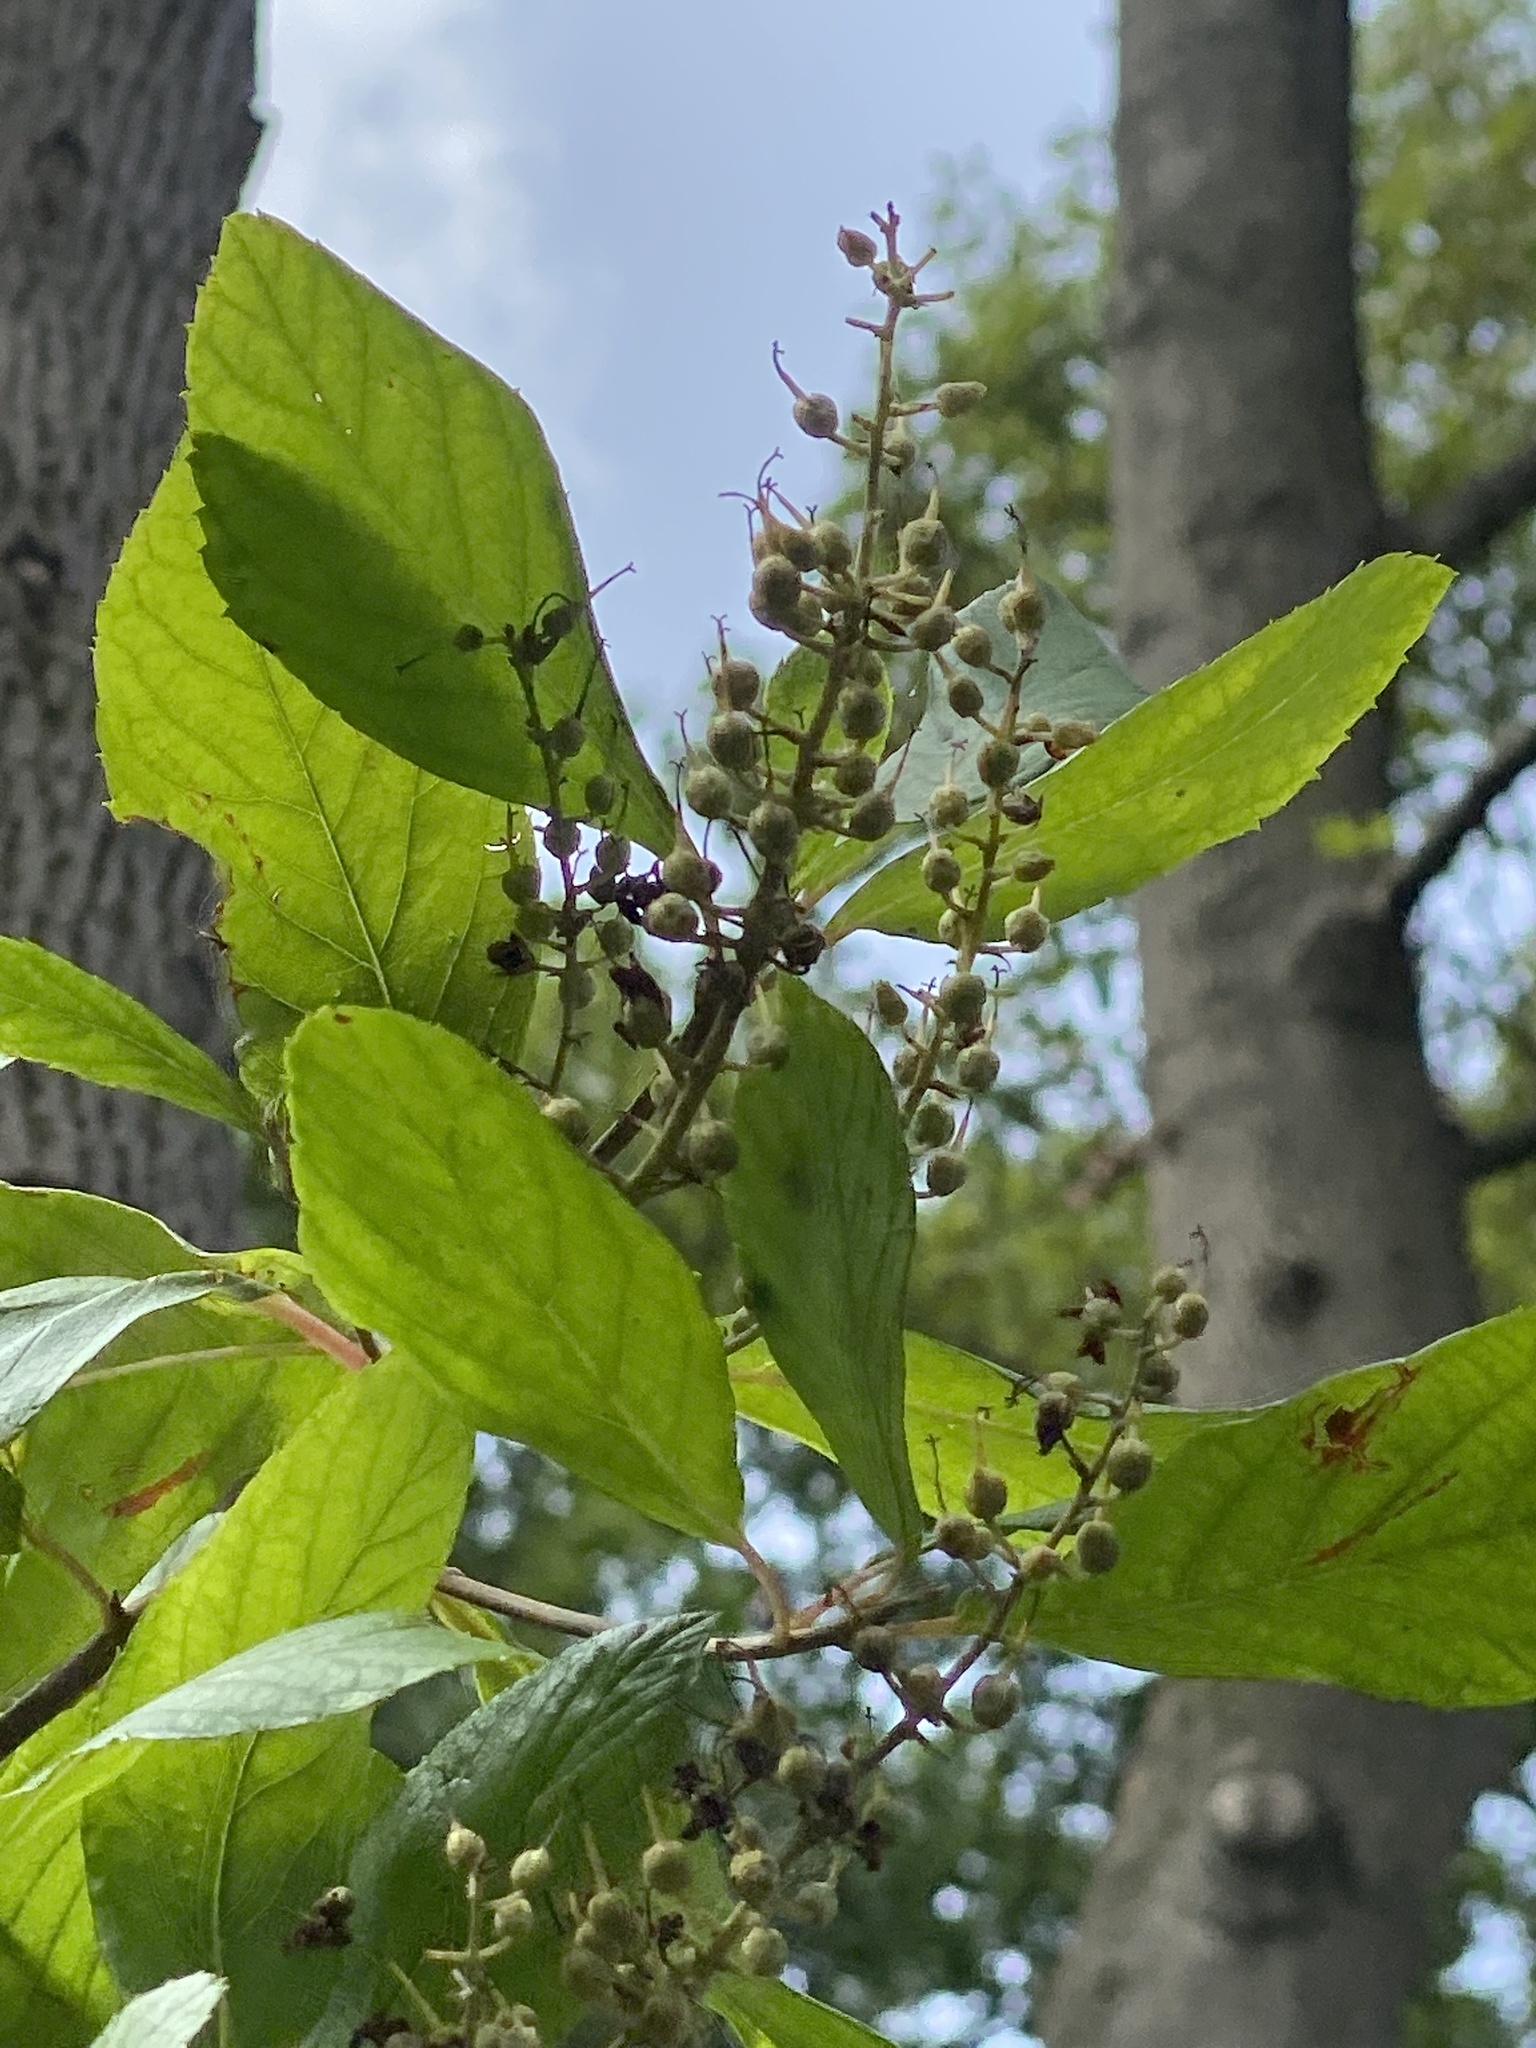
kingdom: Plantae
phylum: Tracheophyta
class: Magnoliopsida
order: Ericales
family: Clethraceae
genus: Clethra
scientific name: Clethra alnifolia
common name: Sweet pepperbush
